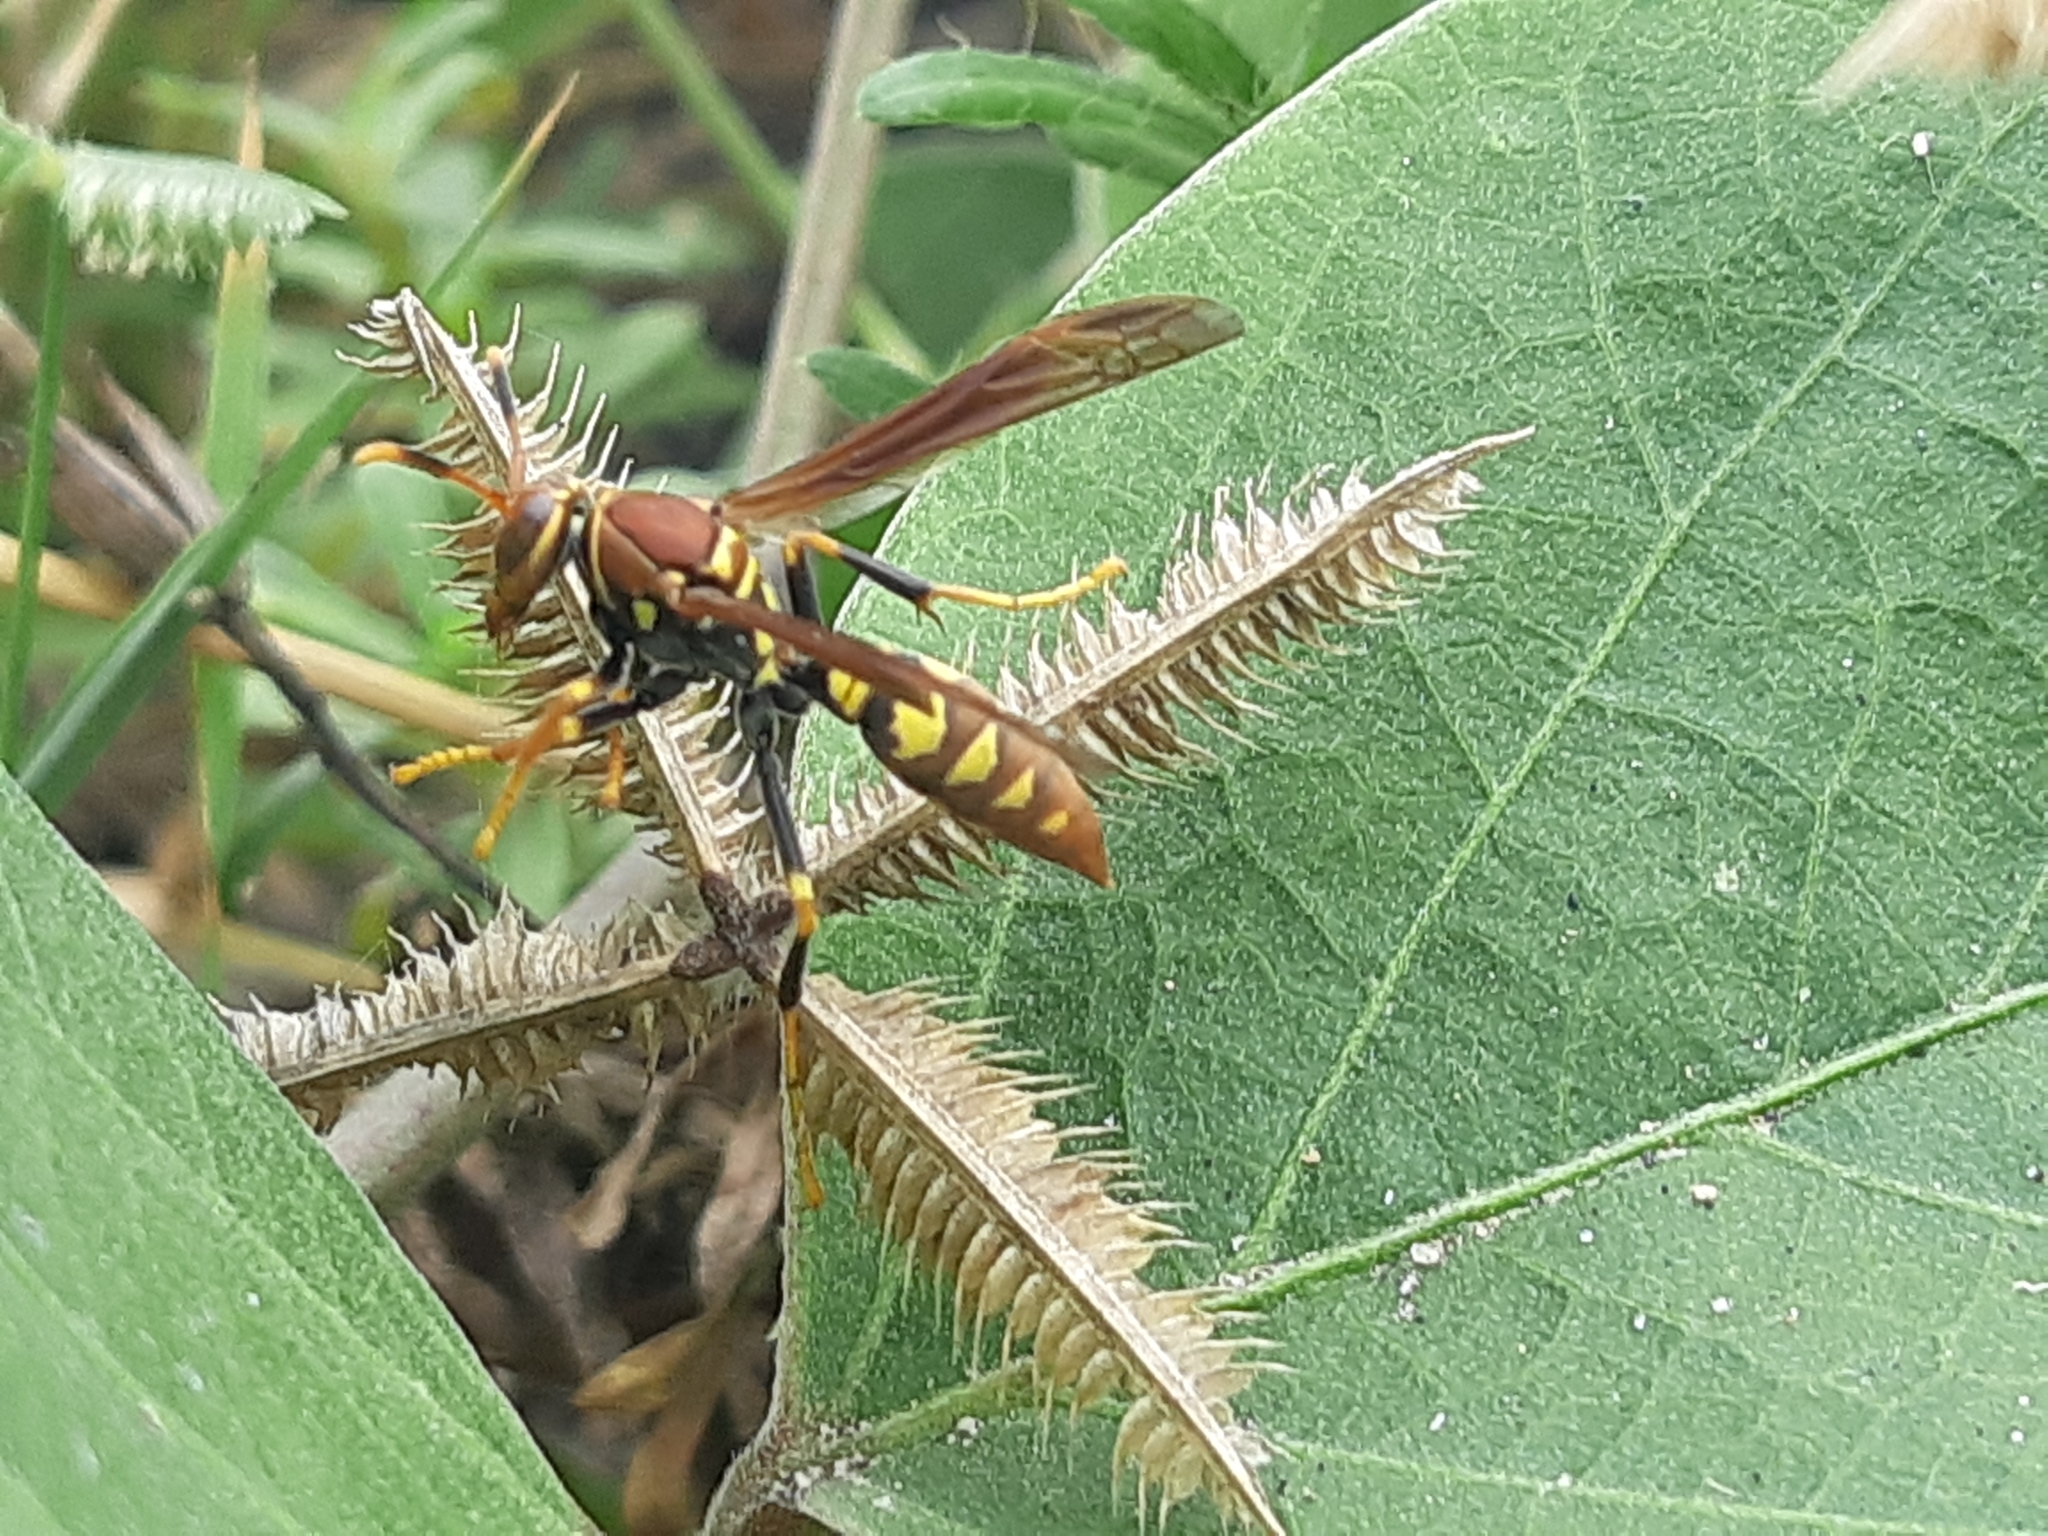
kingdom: Animalia
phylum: Arthropoda
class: Insecta
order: Hymenoptera
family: Eumenidae
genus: Polistes
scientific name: Polistes versicolor
